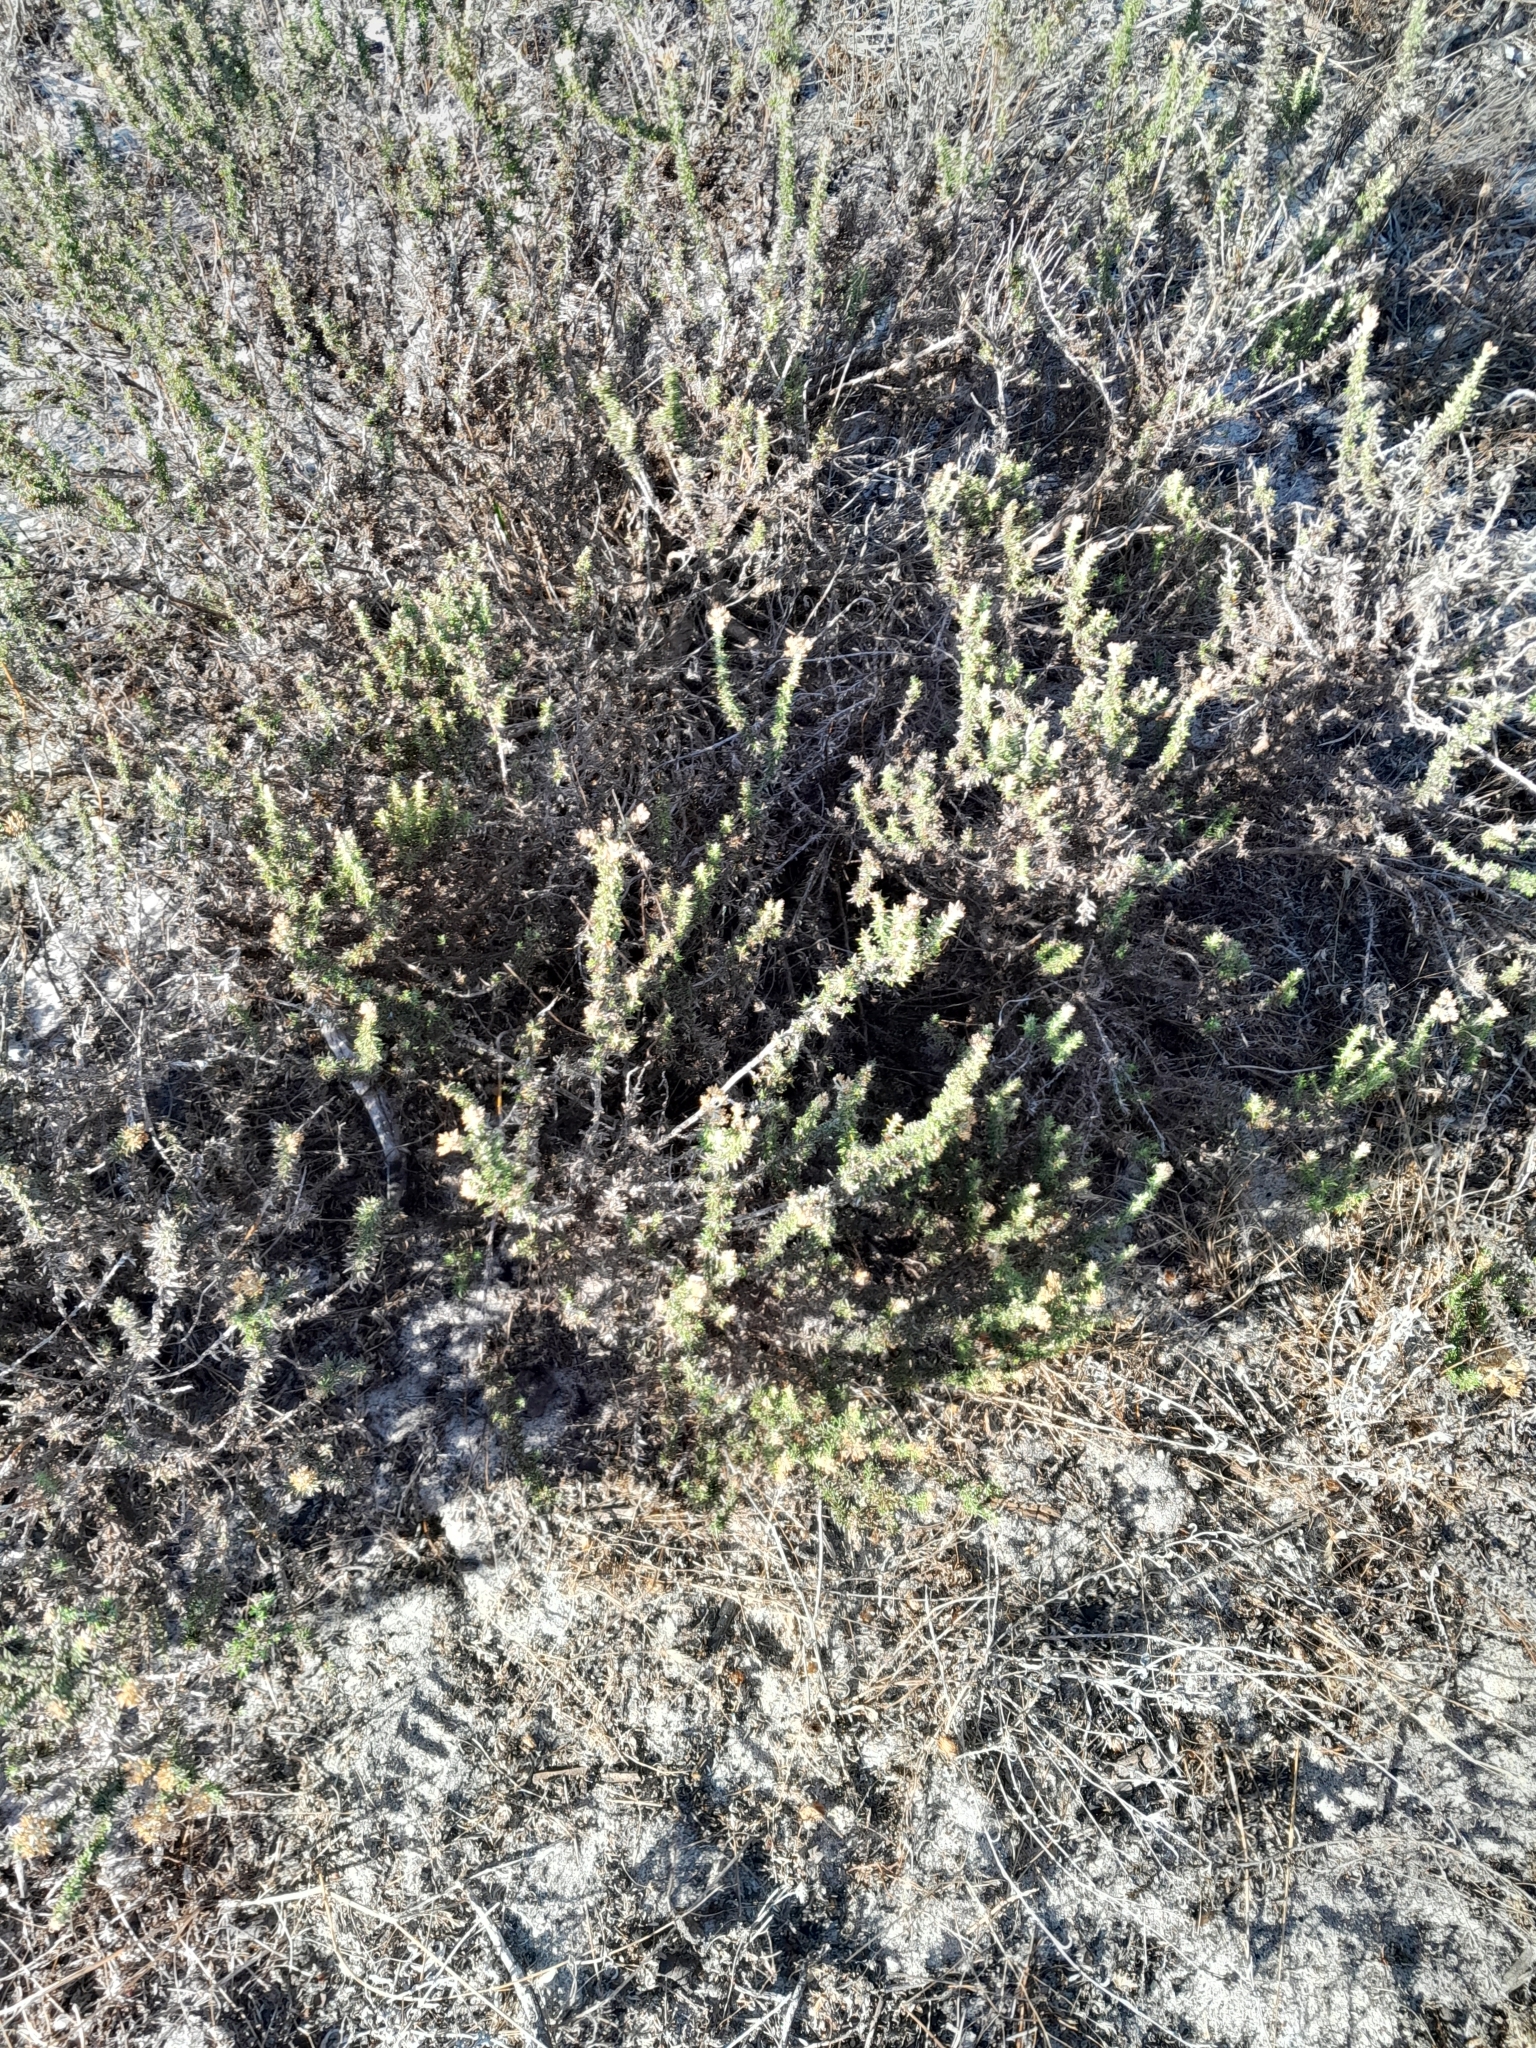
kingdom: Plantae
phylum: Tracheophyta
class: Magnoliopsida
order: Asterales
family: Asteraceae
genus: Metalasia
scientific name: Metalasia densa
